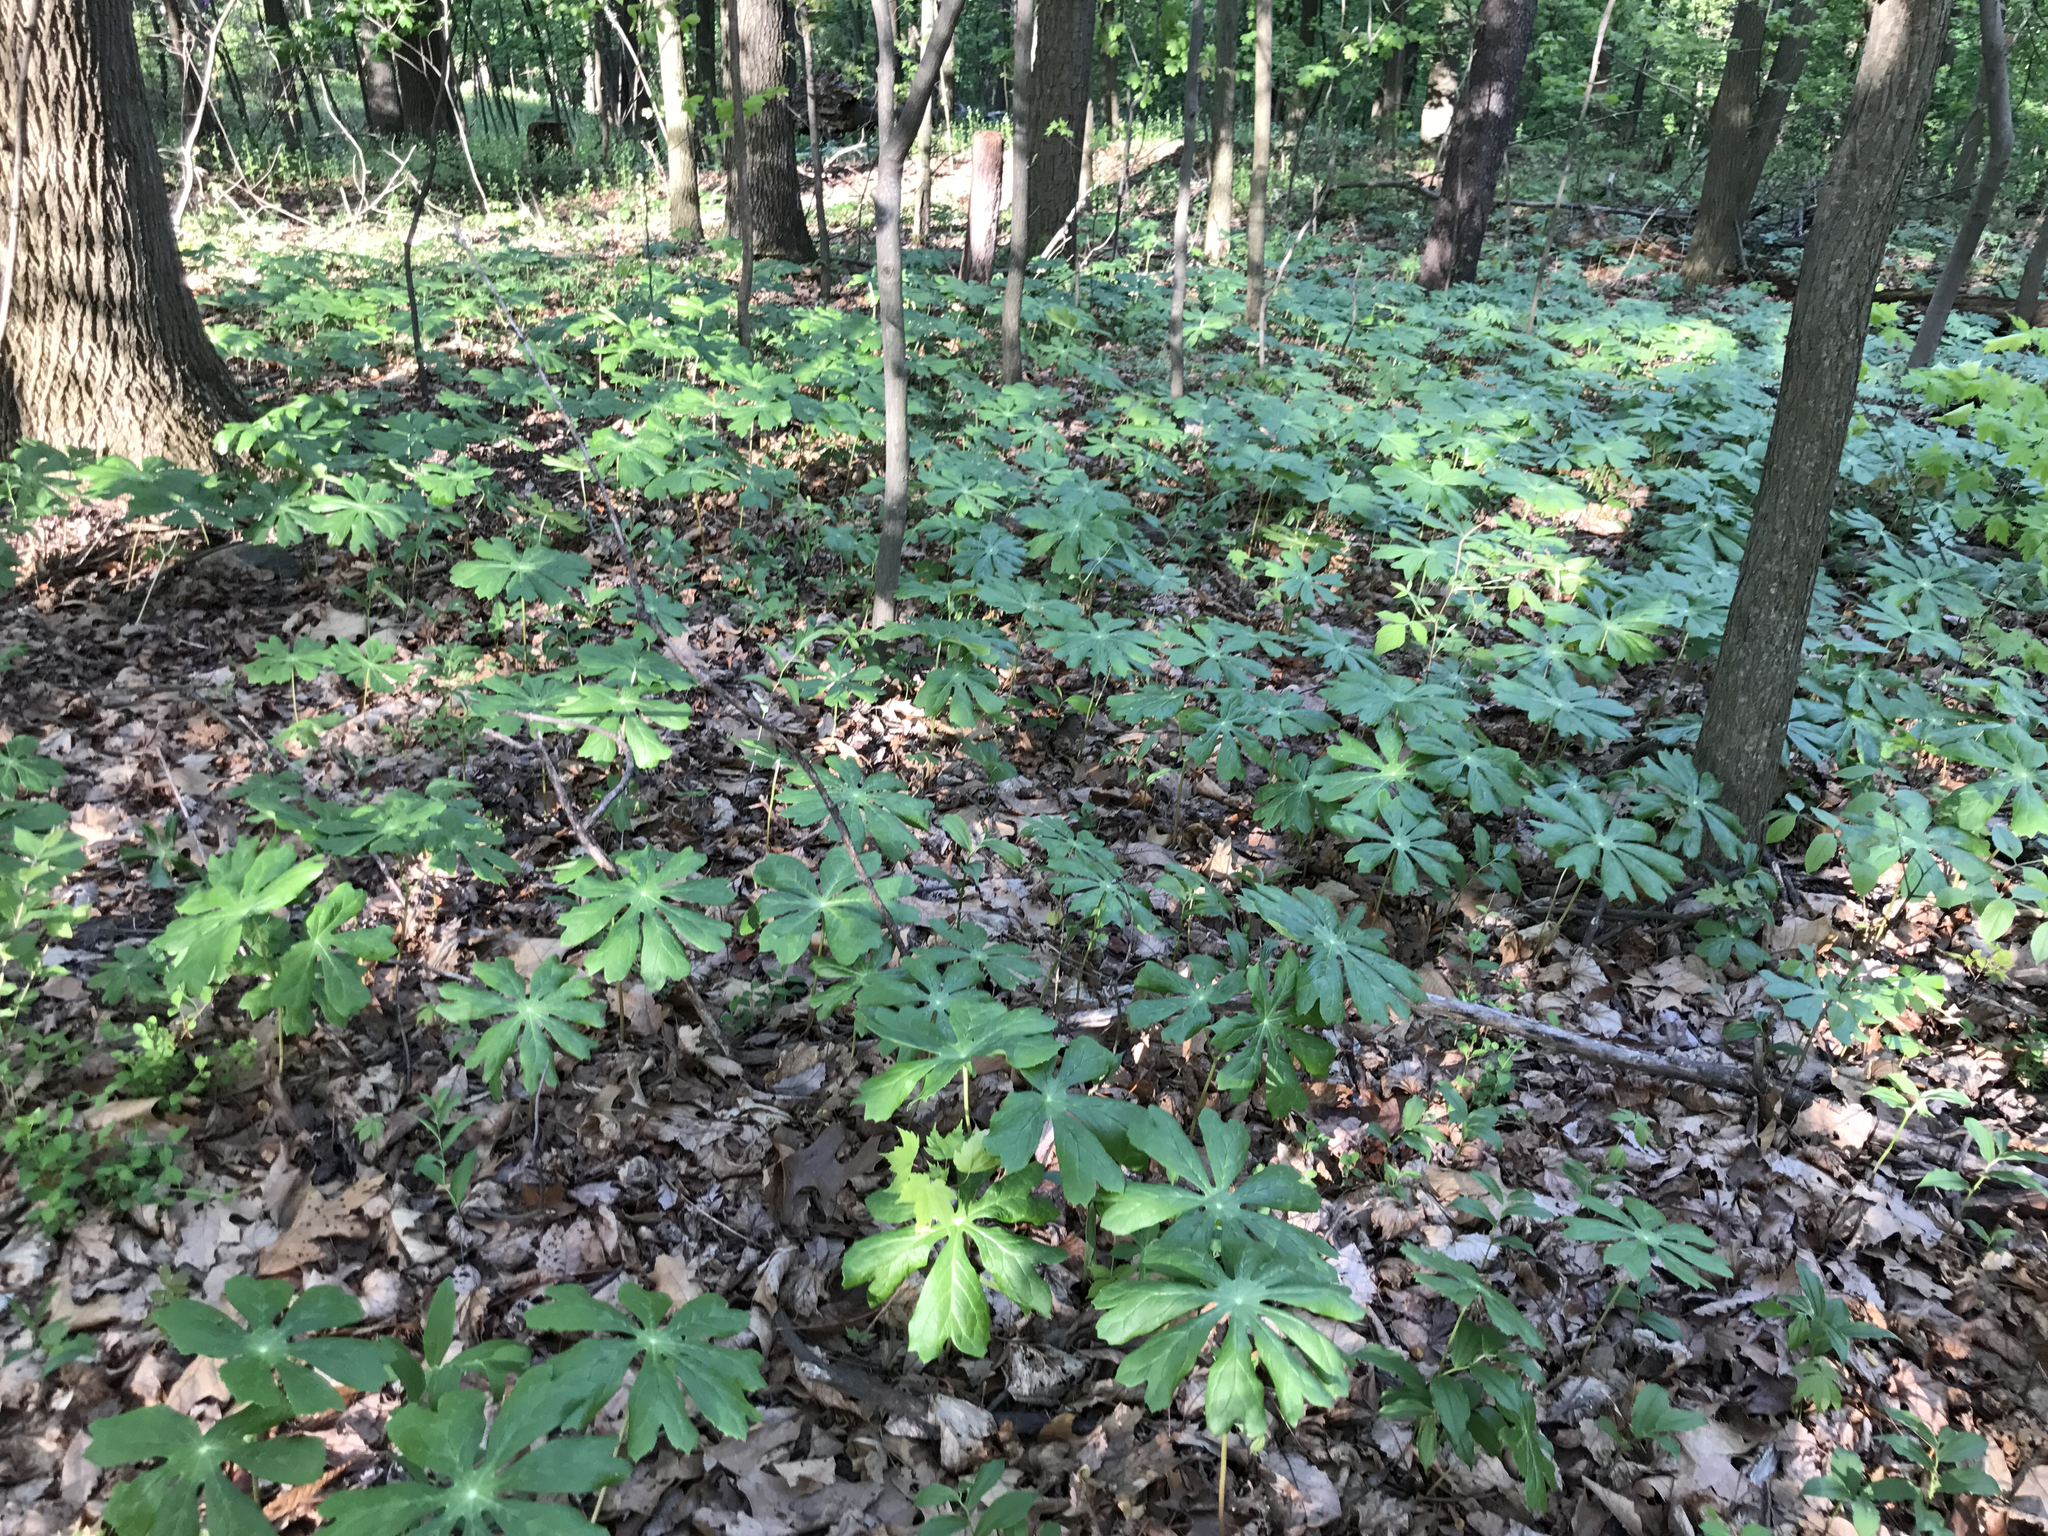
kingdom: Plantae
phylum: Tracheophyta
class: Magnoliopsida
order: Ranunculales
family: Berberidaceae
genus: Podophyllum
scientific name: Podophyllum peltatum
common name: Wild mandrake
